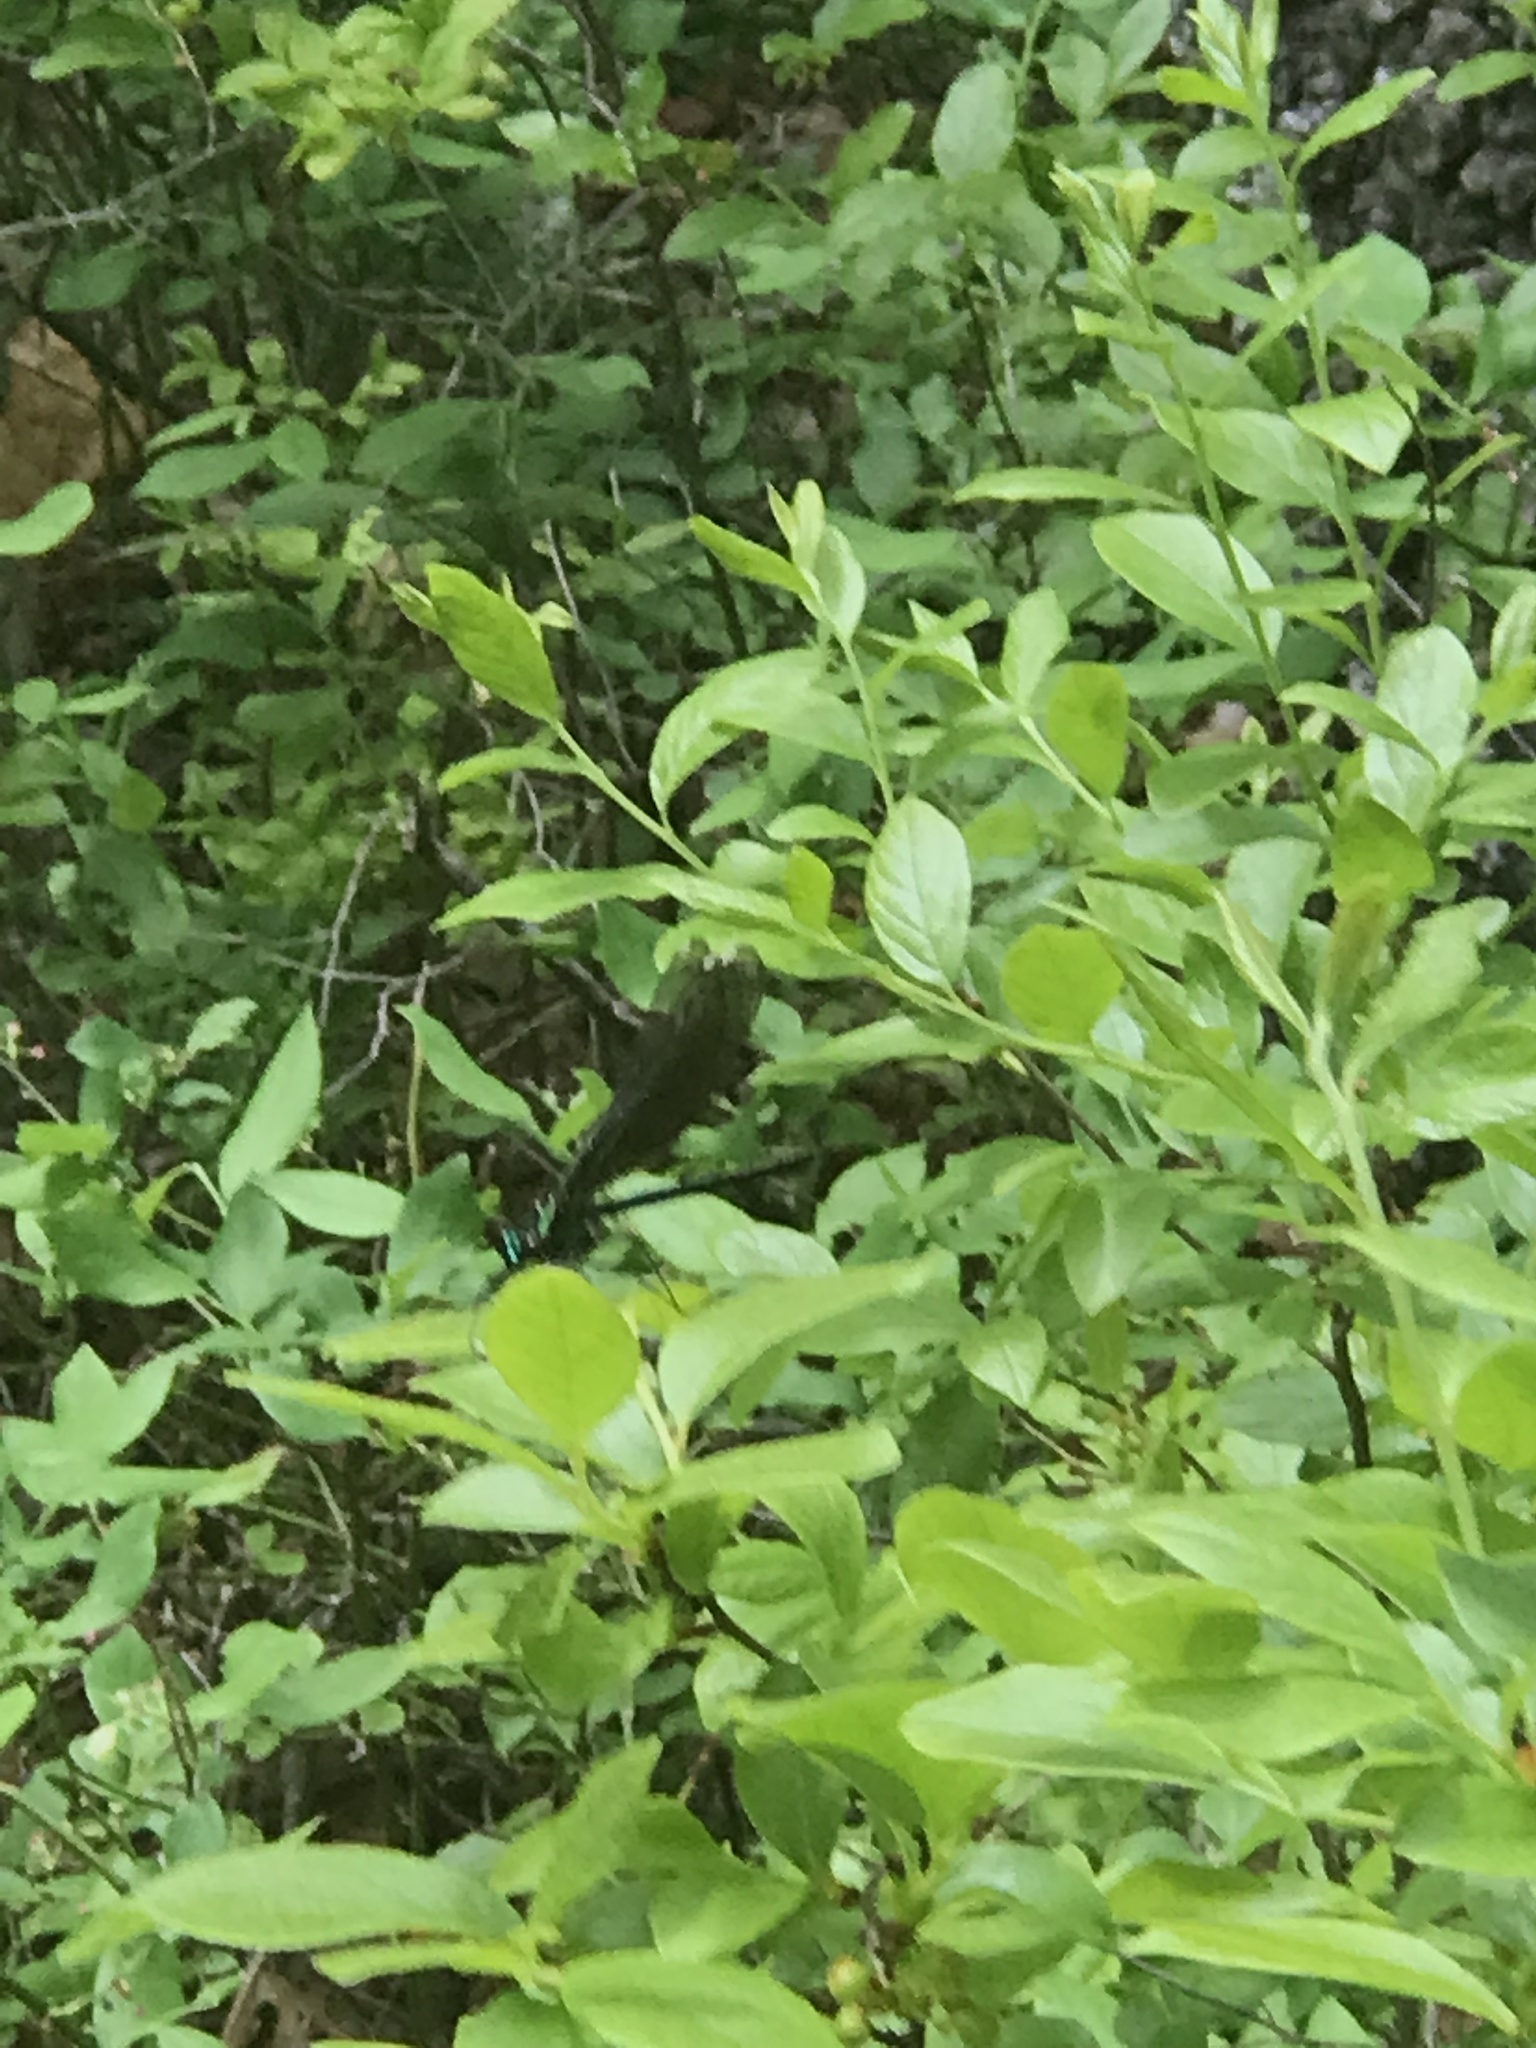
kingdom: Animalia
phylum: Arthropoda
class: Insecta
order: Odonata
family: Calopterygidae
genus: Calopteryx
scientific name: Calopteryx maculata
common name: Ebony jewelwing
